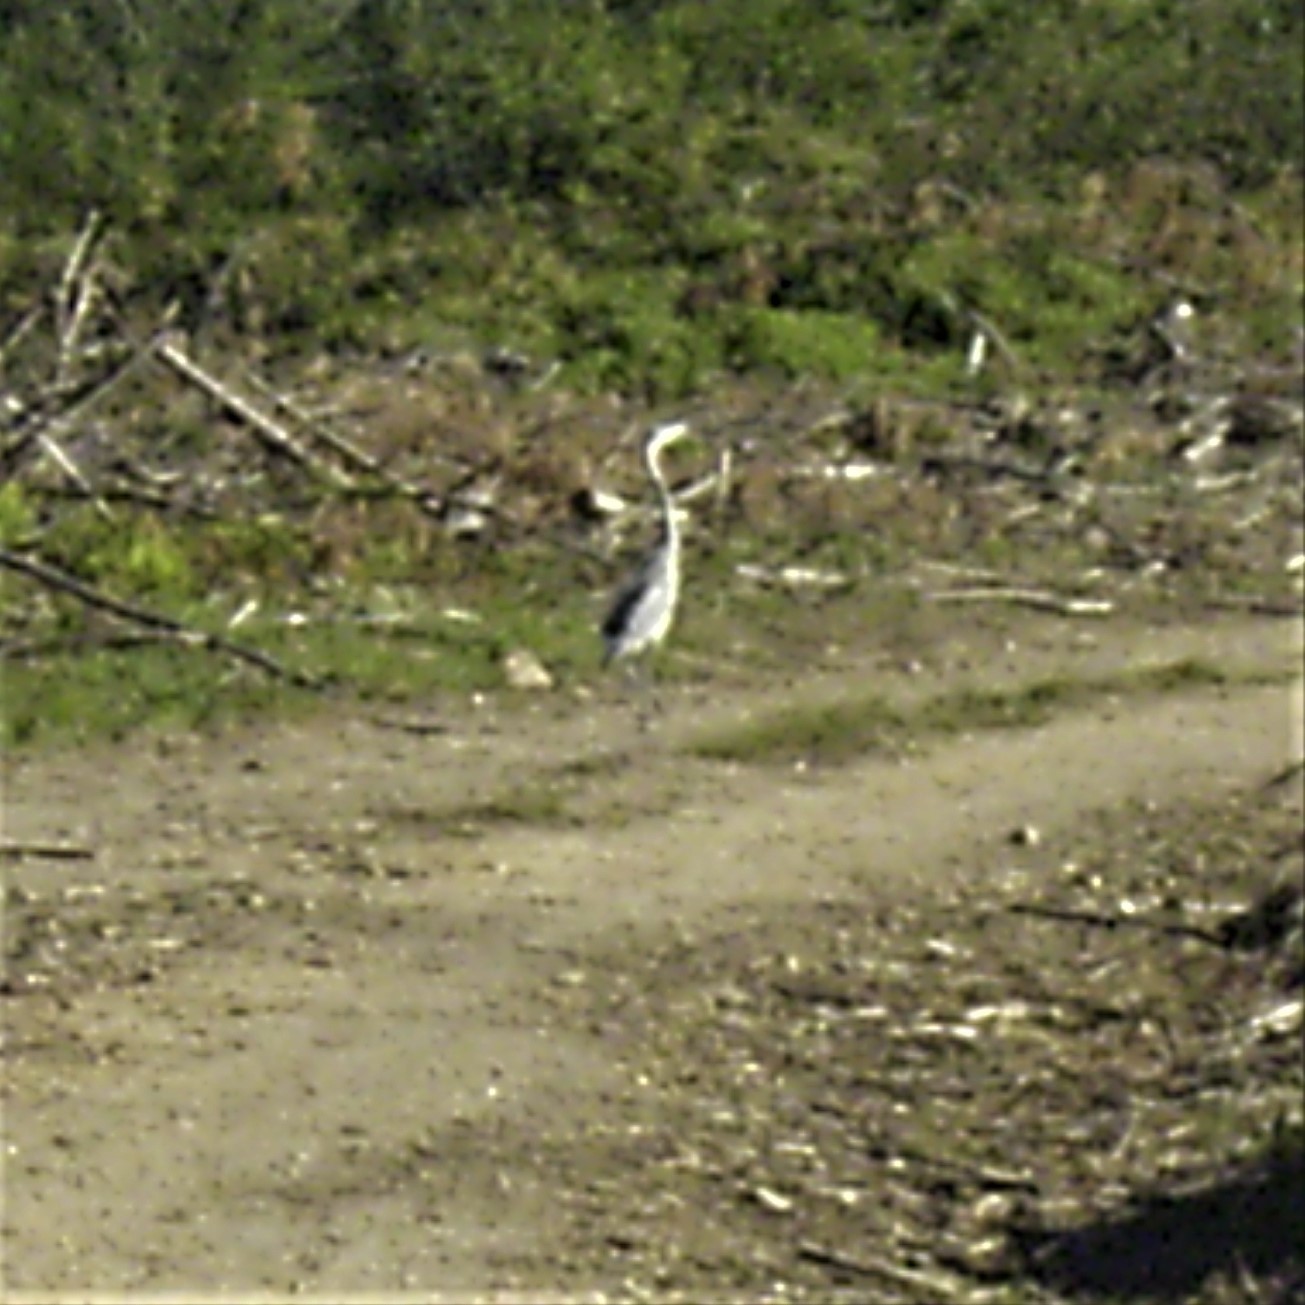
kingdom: Animalia
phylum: Chordata
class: Aves
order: Pelecaniformes
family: Ardeidae
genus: Ardea
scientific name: Ardea melanocephala
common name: Black-headed heron
